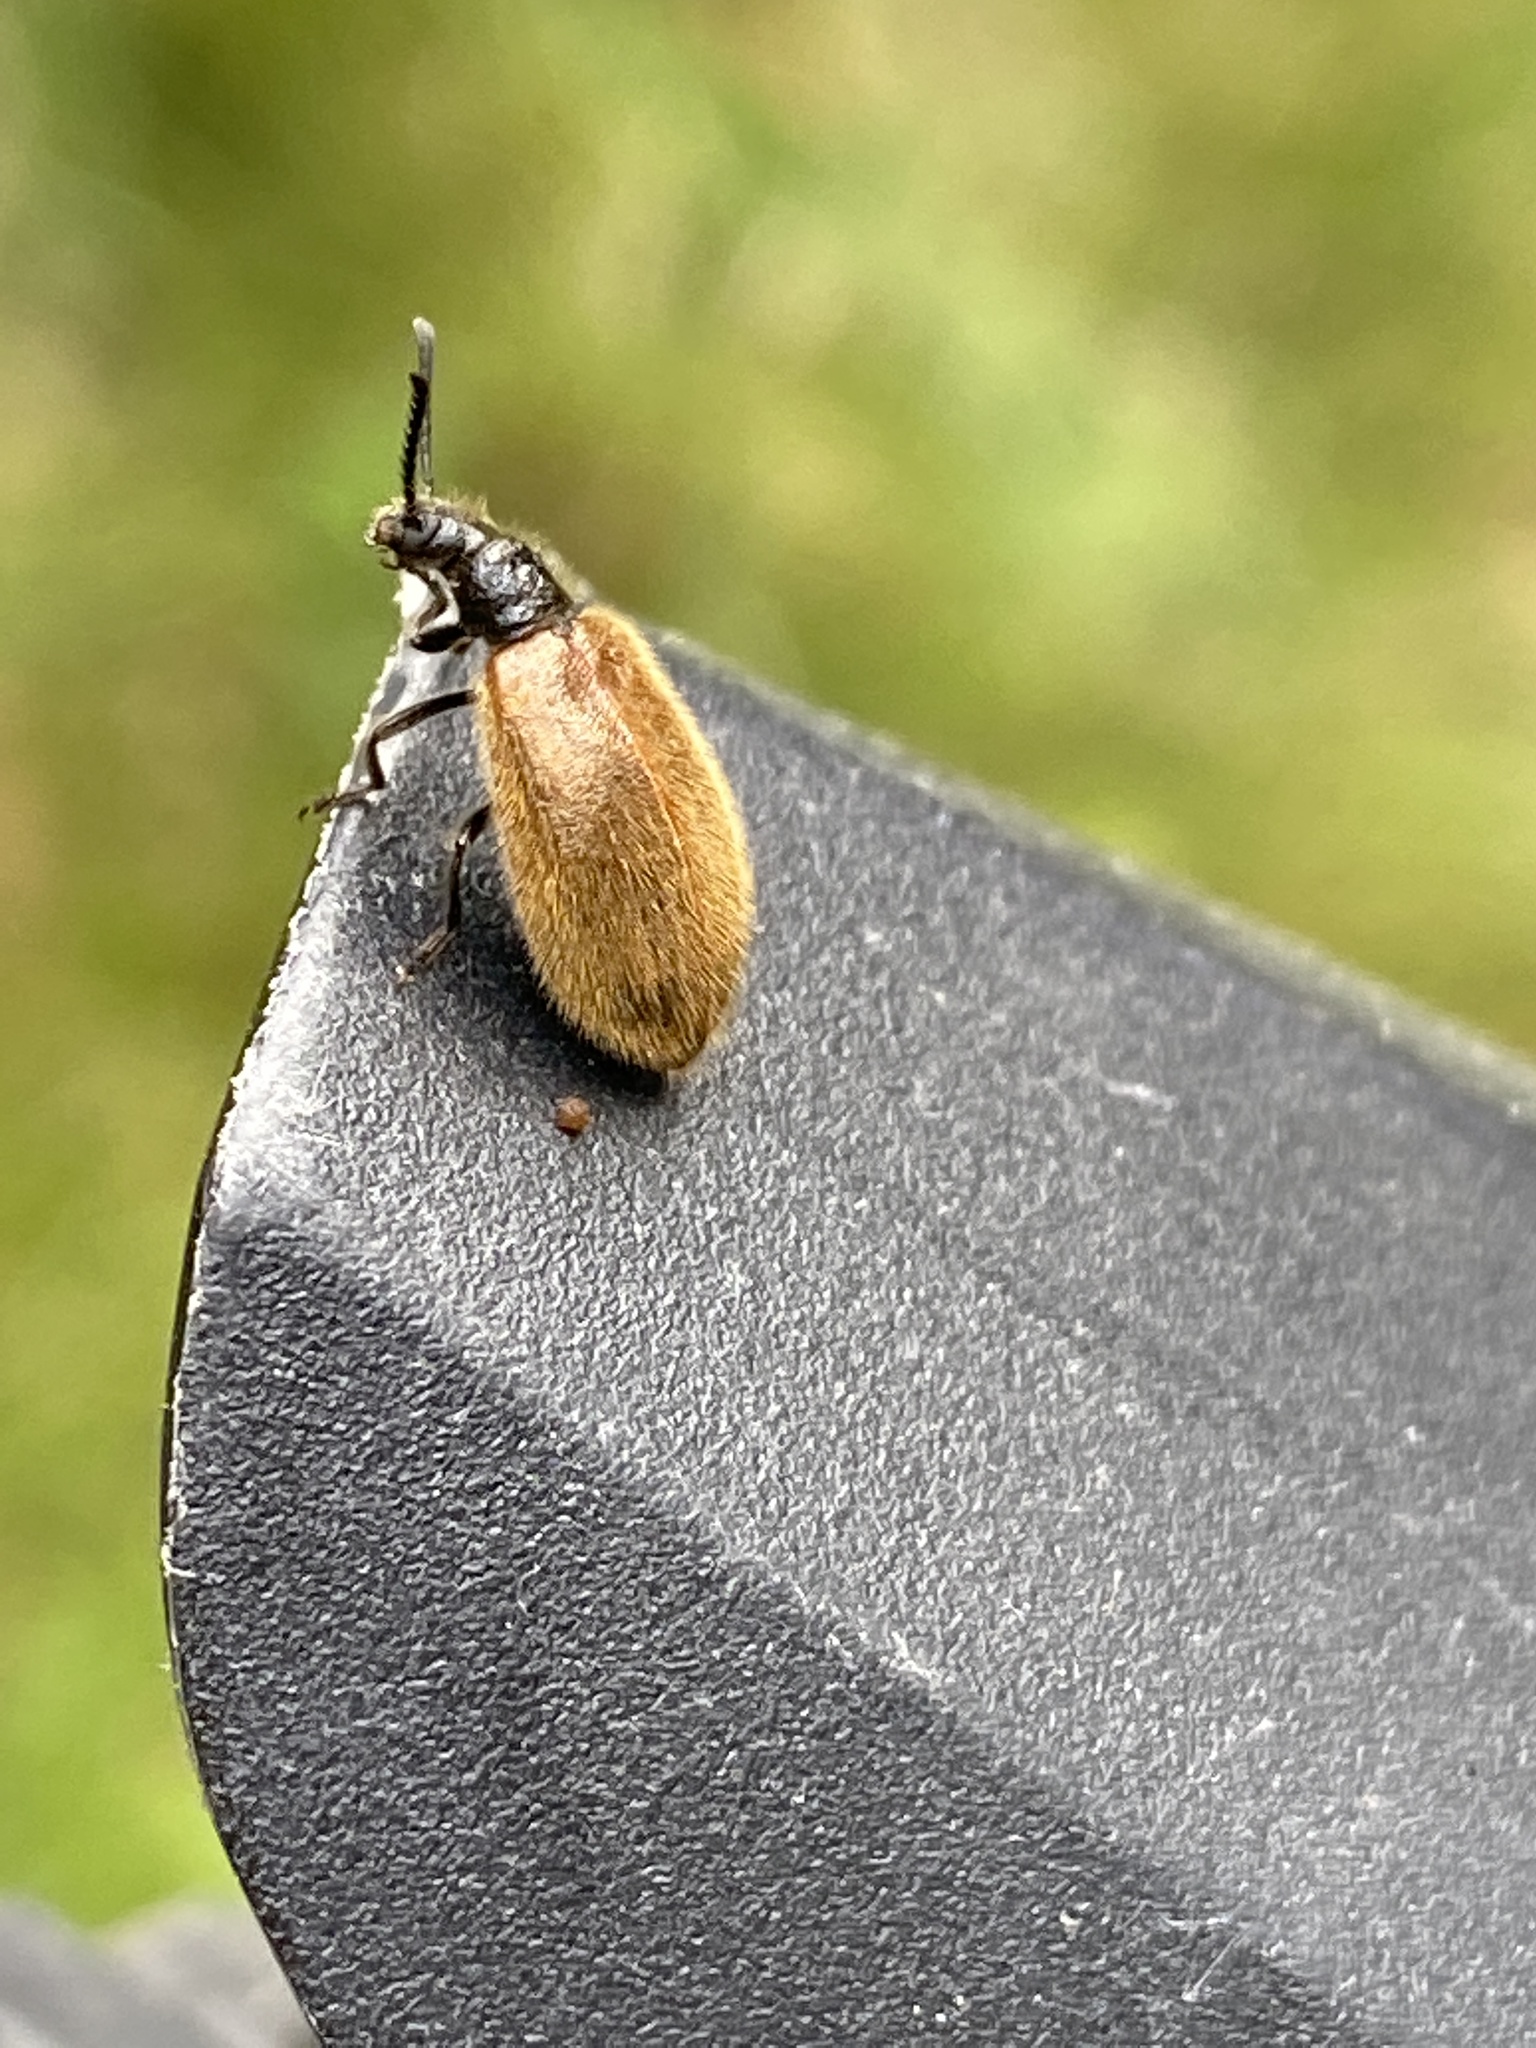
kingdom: Animalia
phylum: Arthropoda
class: Insecta
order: Coleoptera
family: Tenebrionidae
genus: Lagria
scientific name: Lagria hirta
